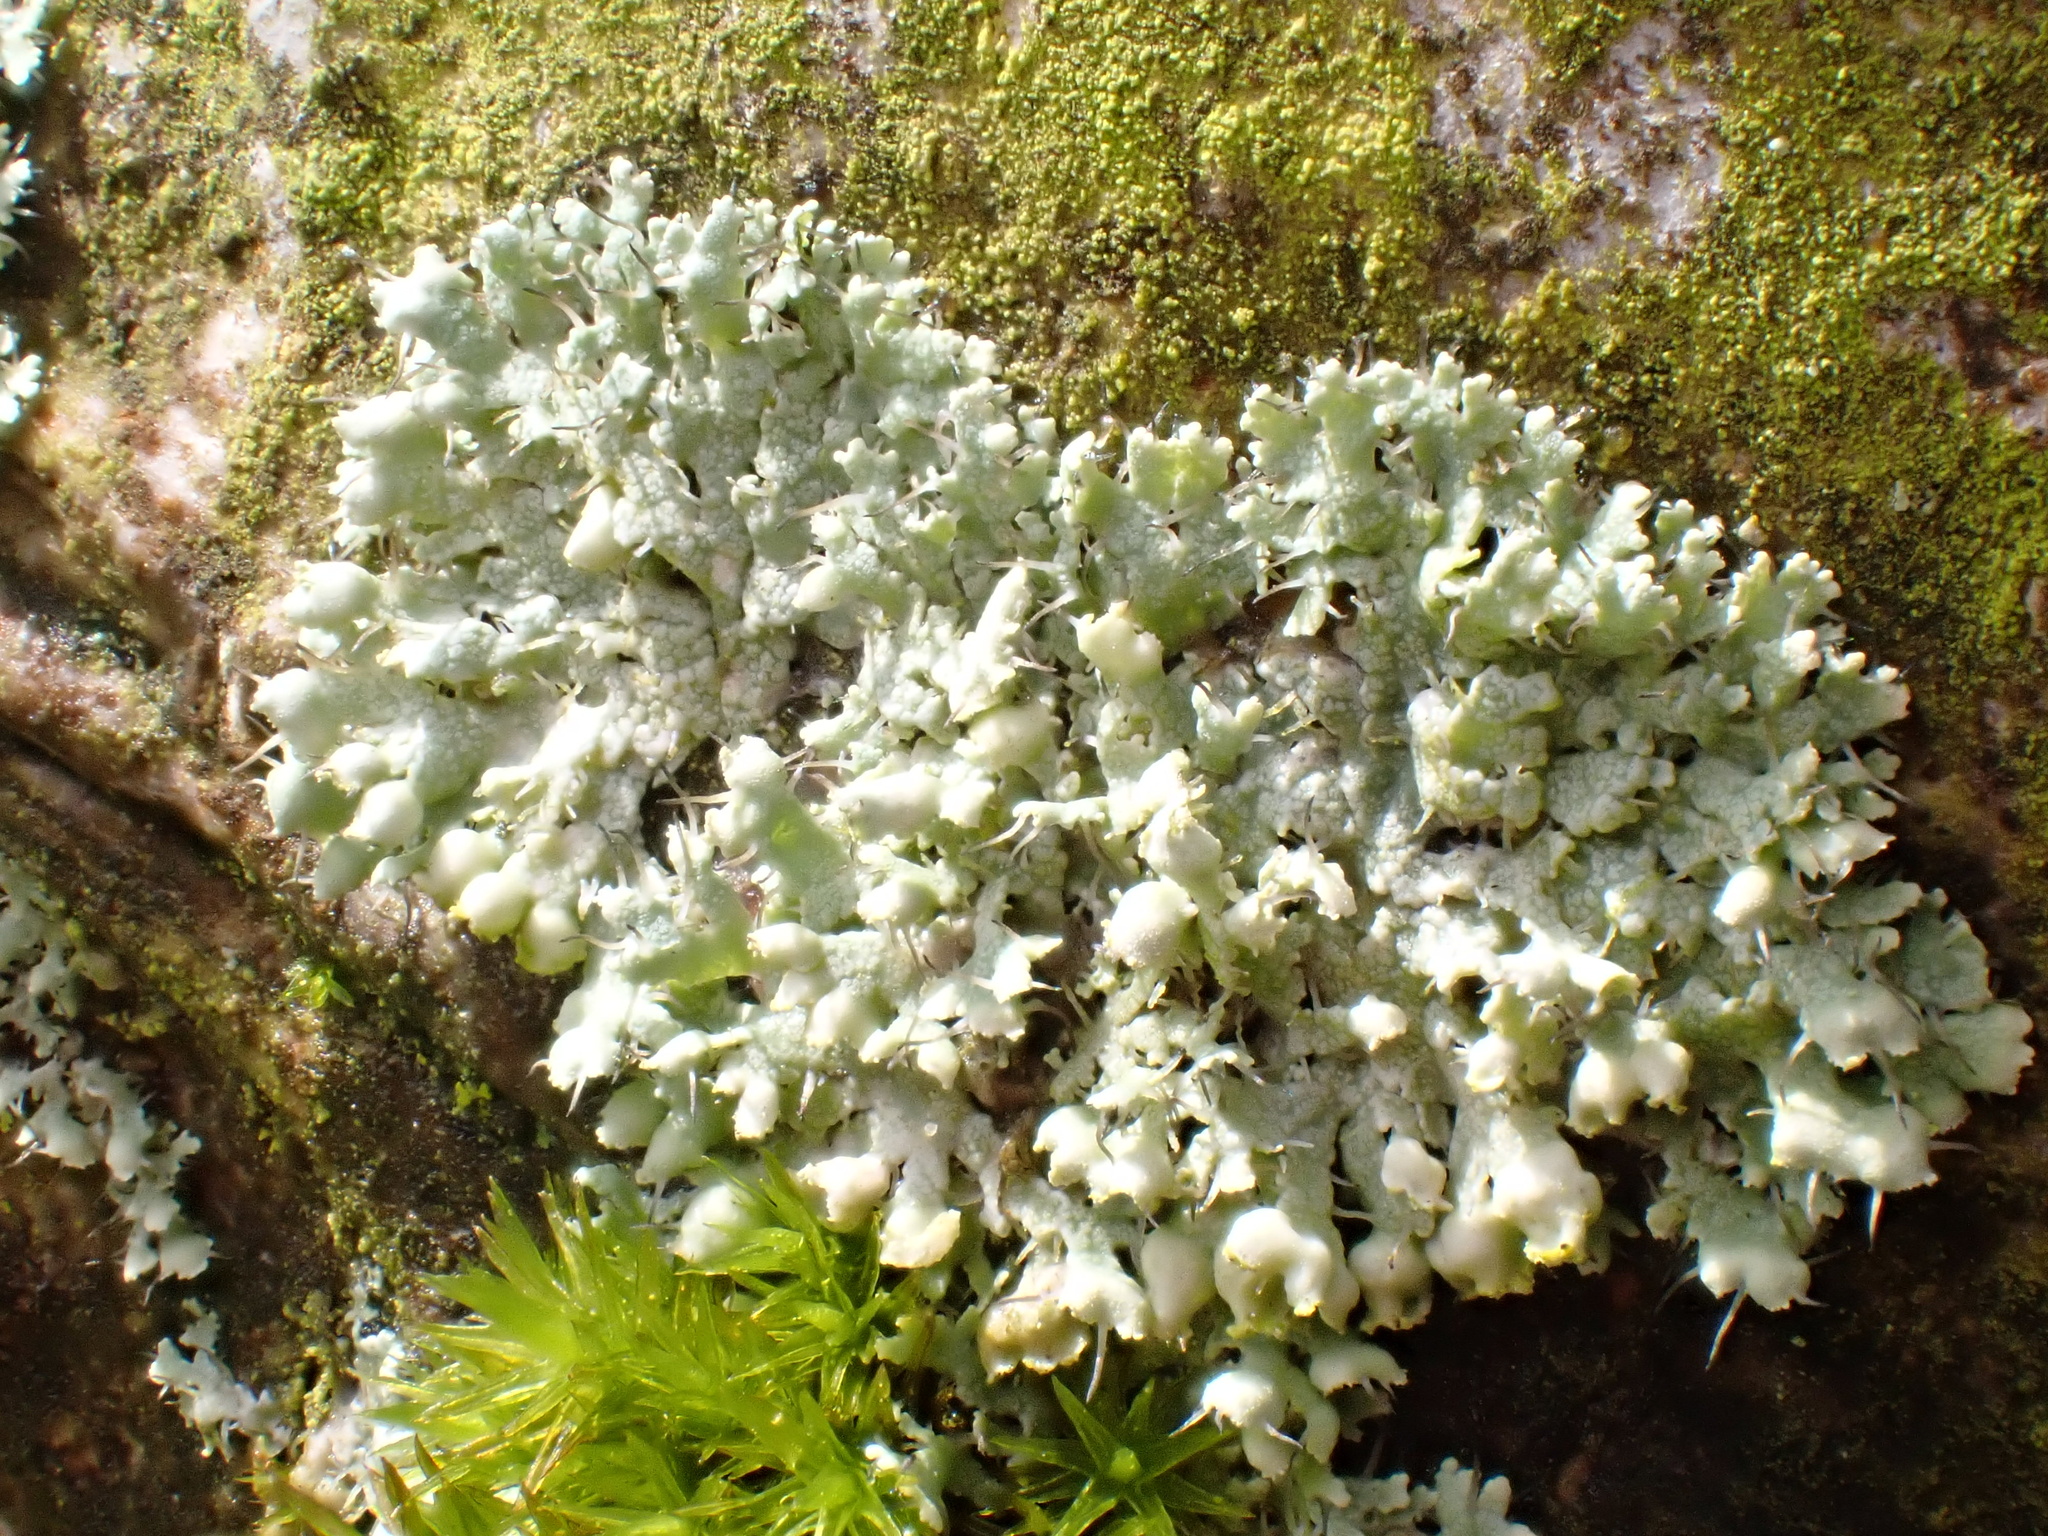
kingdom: Fungi
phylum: Ascomycota
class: Lecanoromycetes
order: Caliciales
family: Physciaceae
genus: Physcia
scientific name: Physcia adscendens
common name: Hooded rosette lichen
